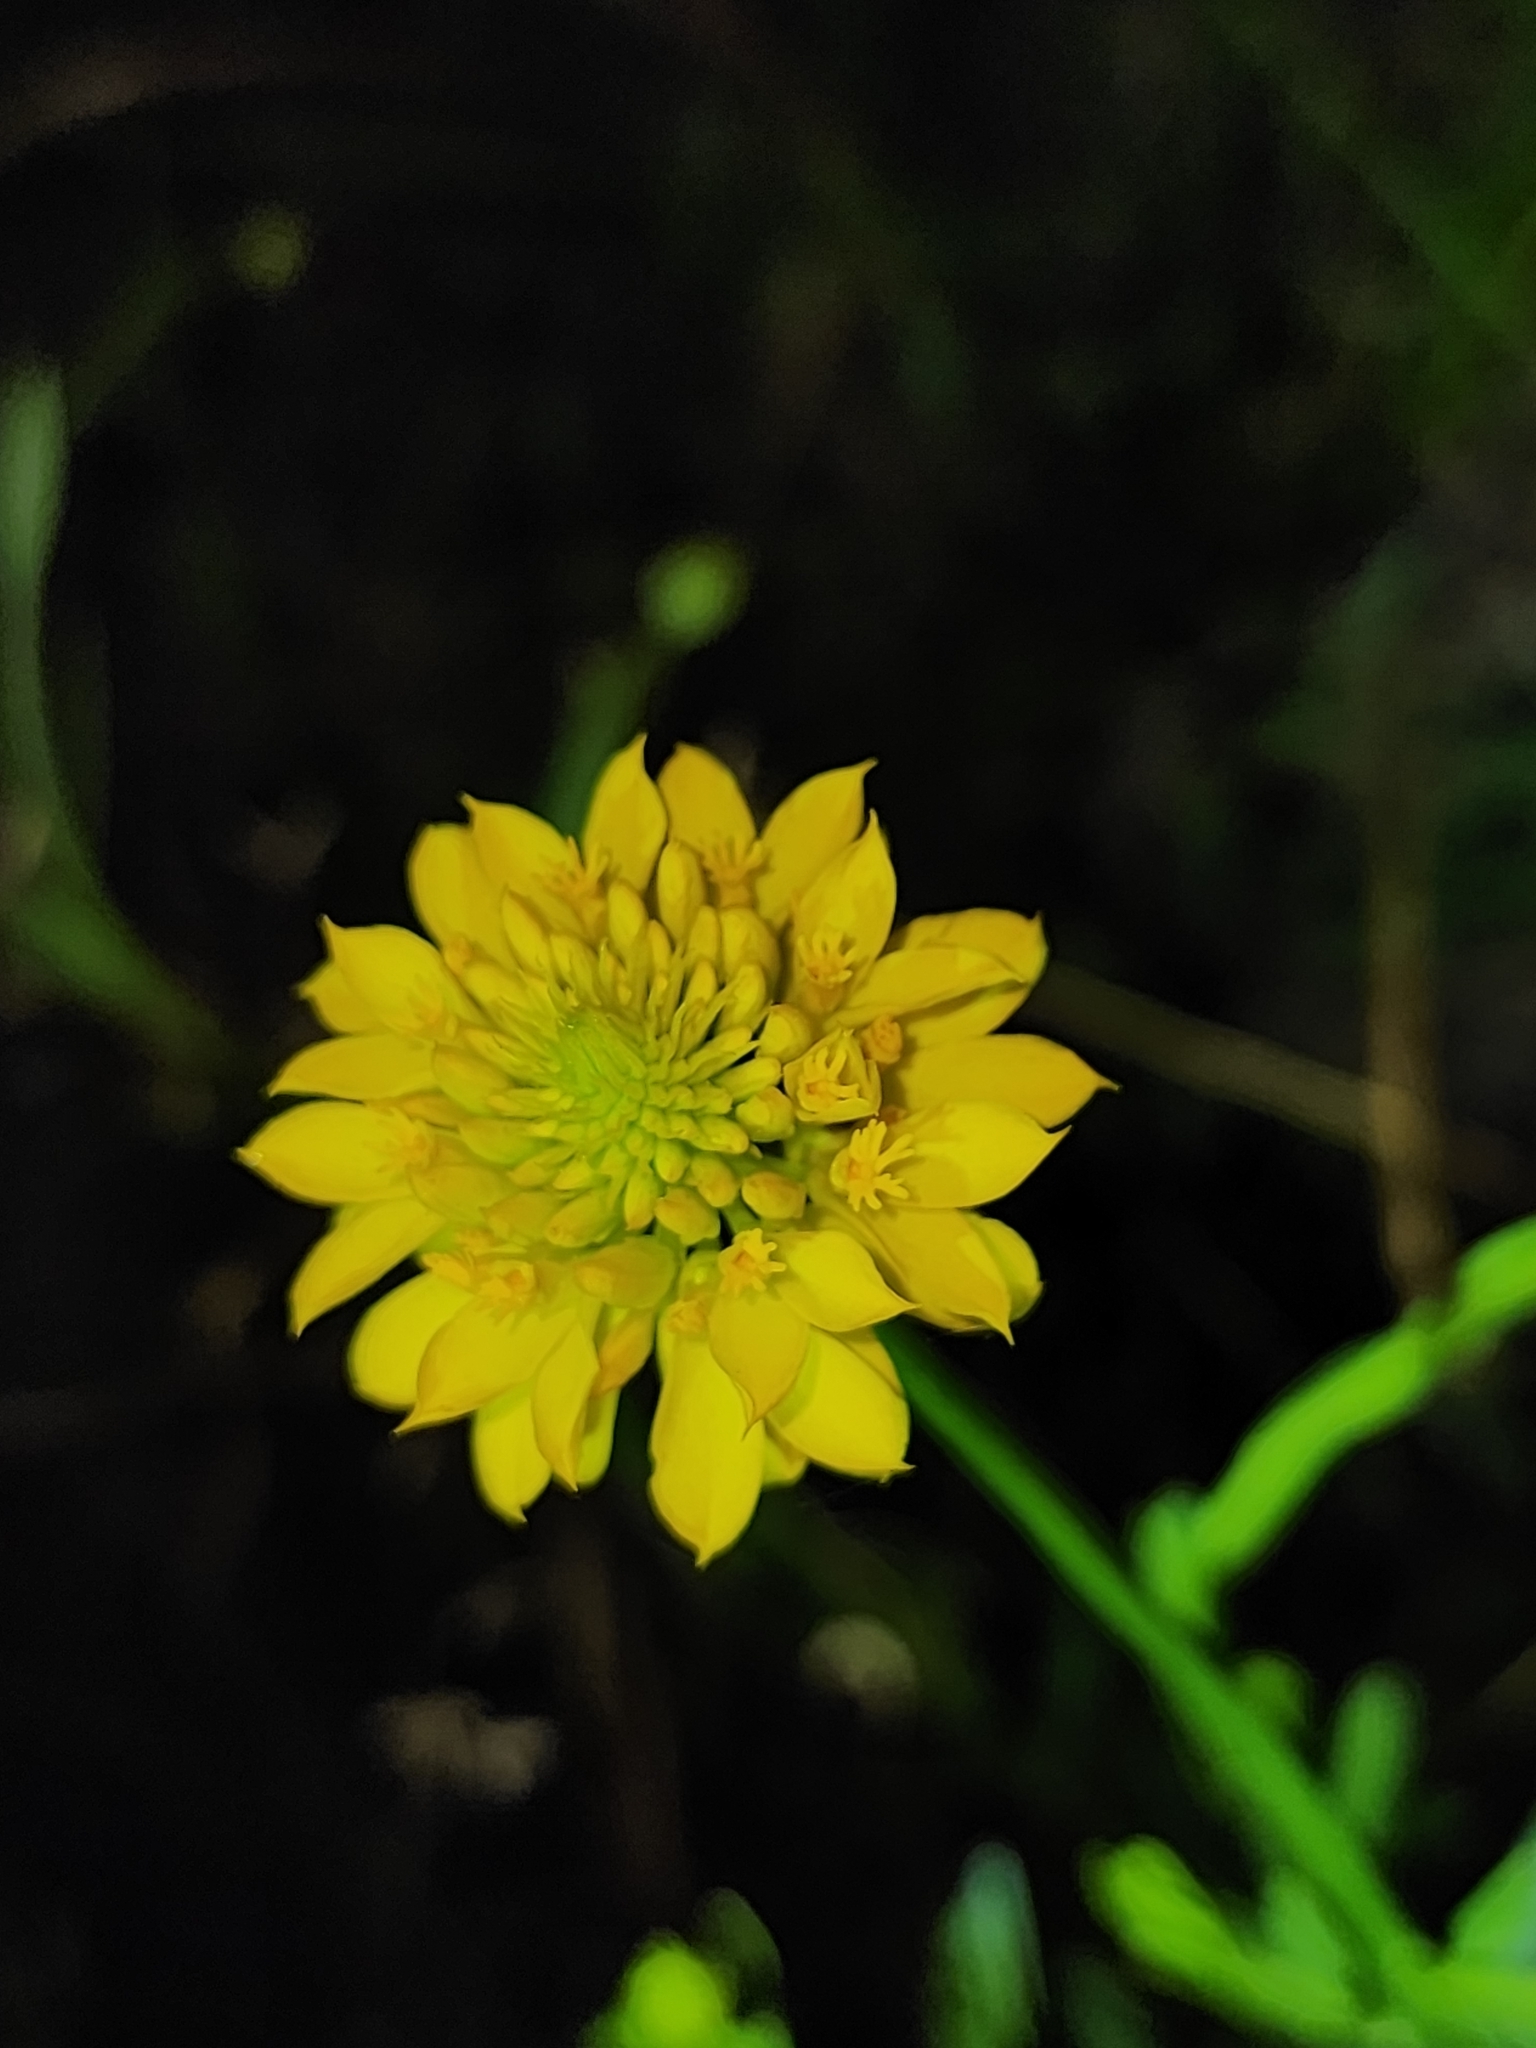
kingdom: Plantae
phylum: Tracheophyta
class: Magnoliopsida
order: Fabales
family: Polygalaceae
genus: Polygala
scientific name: Polygala rugelii
